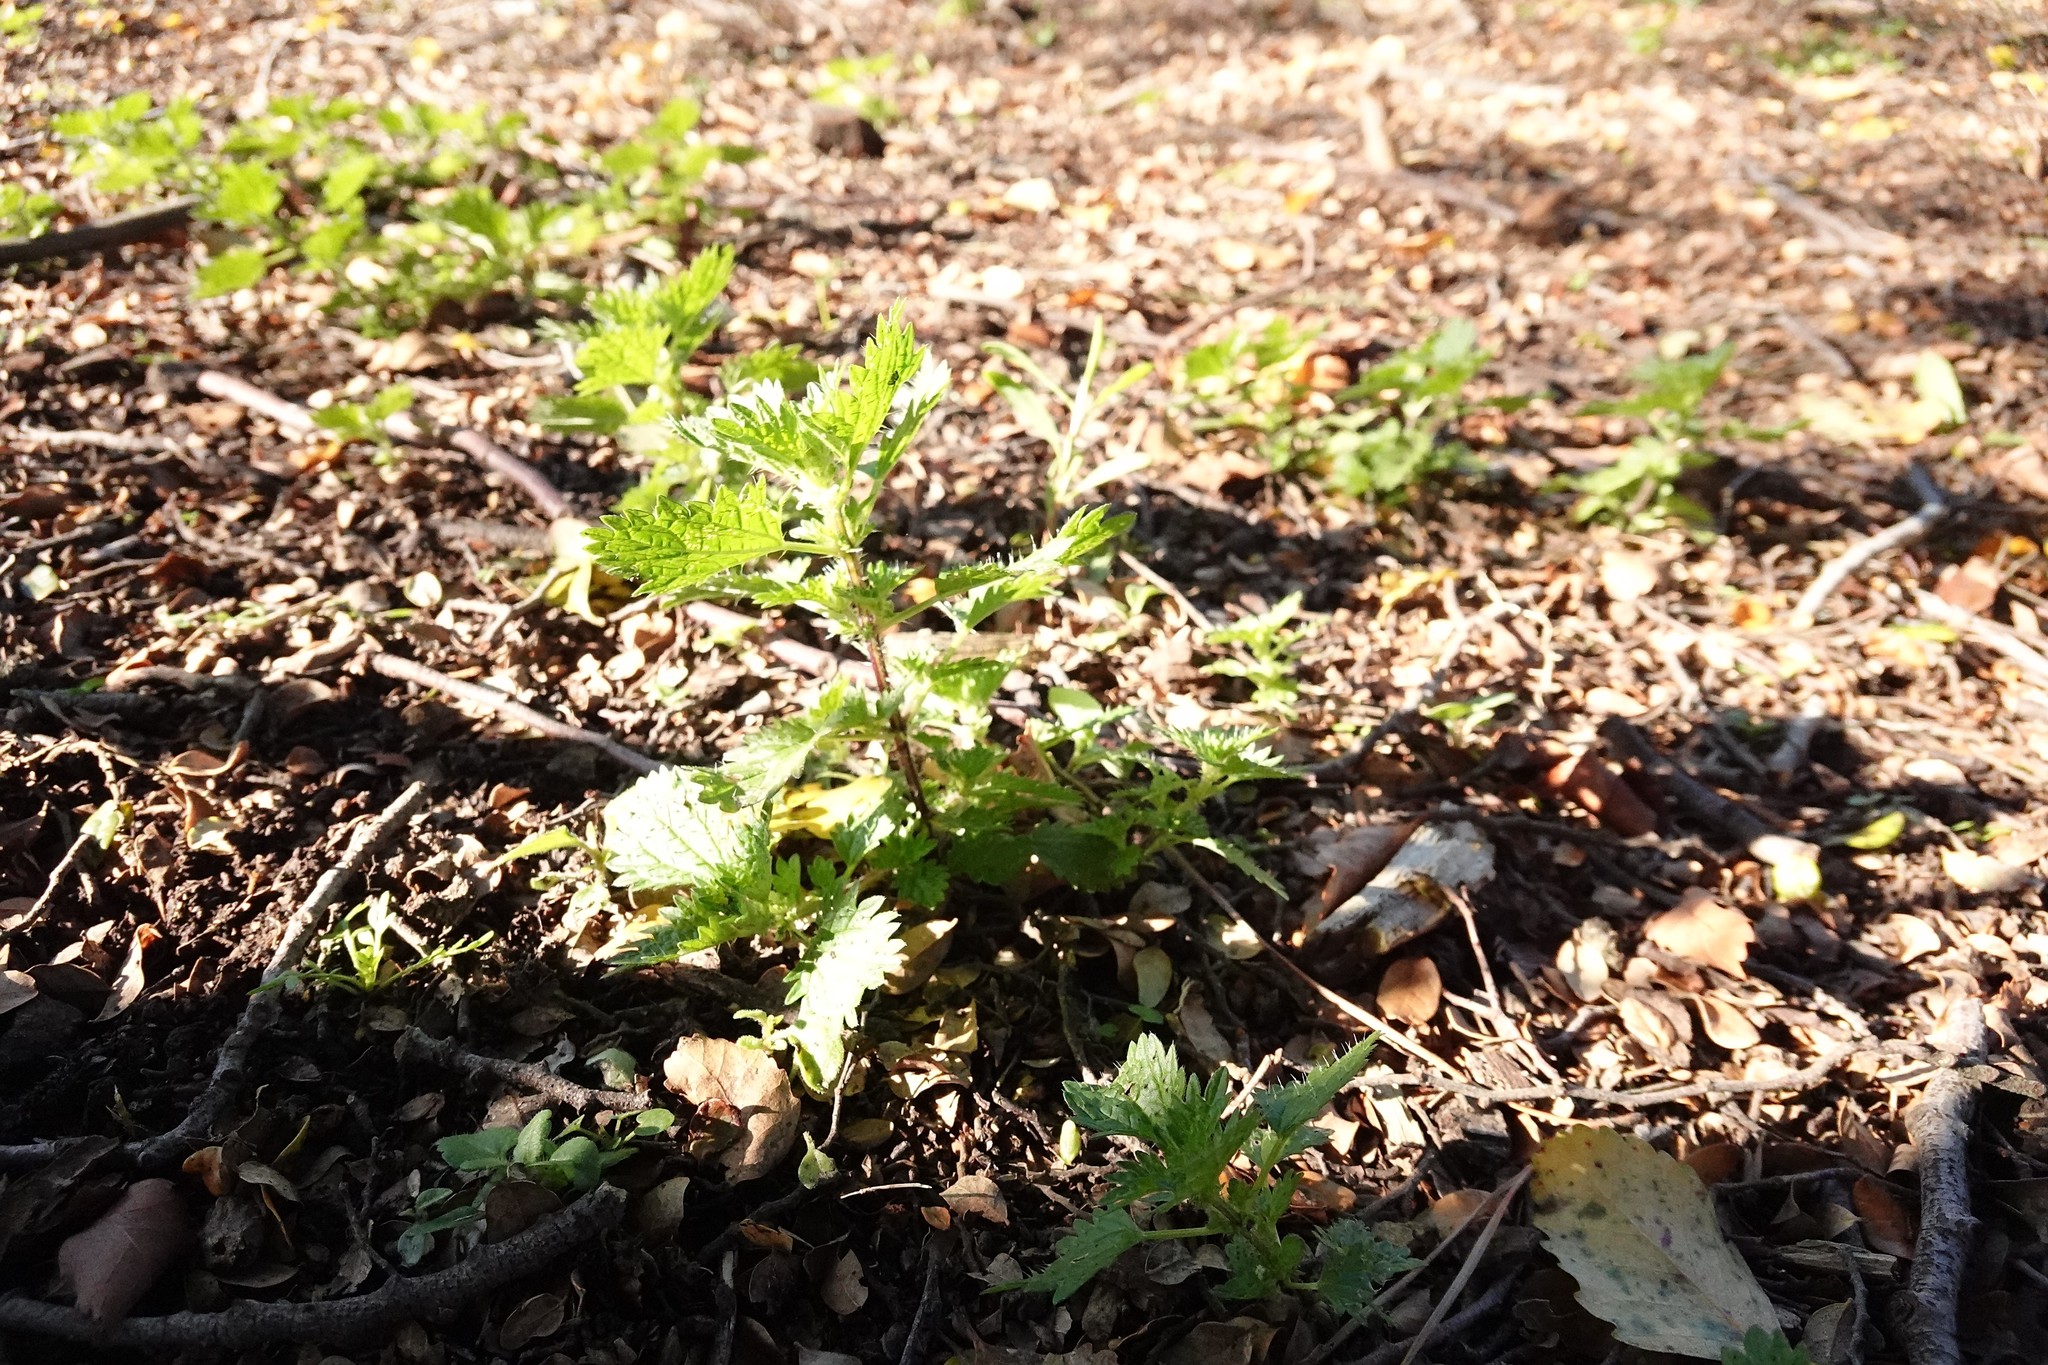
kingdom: Plantae
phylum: Tracheophyta
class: Magnoliopsida
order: Rosales
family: Urticaceae
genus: Urtica
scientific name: Urtica urens
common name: Dwarf nettle
